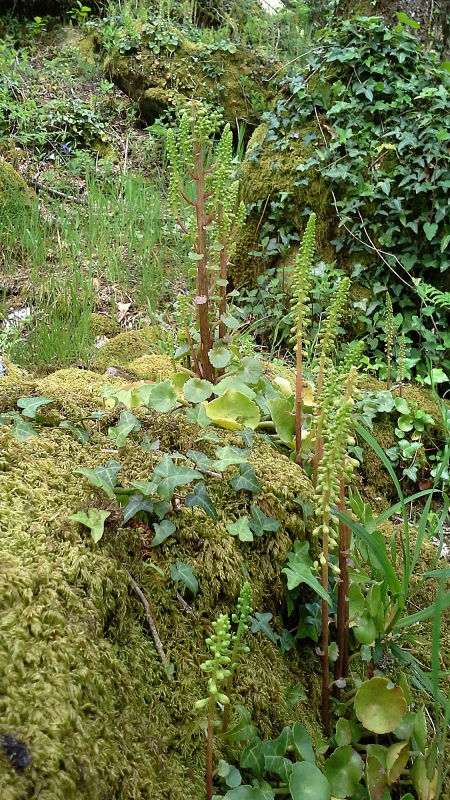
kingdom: Plantae
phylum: Tracheophyta
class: Magnoliopsida
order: Saxifragales
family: Crassulaceae
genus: Umbilicus
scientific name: Umbilicus rupestris
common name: Navelwort
